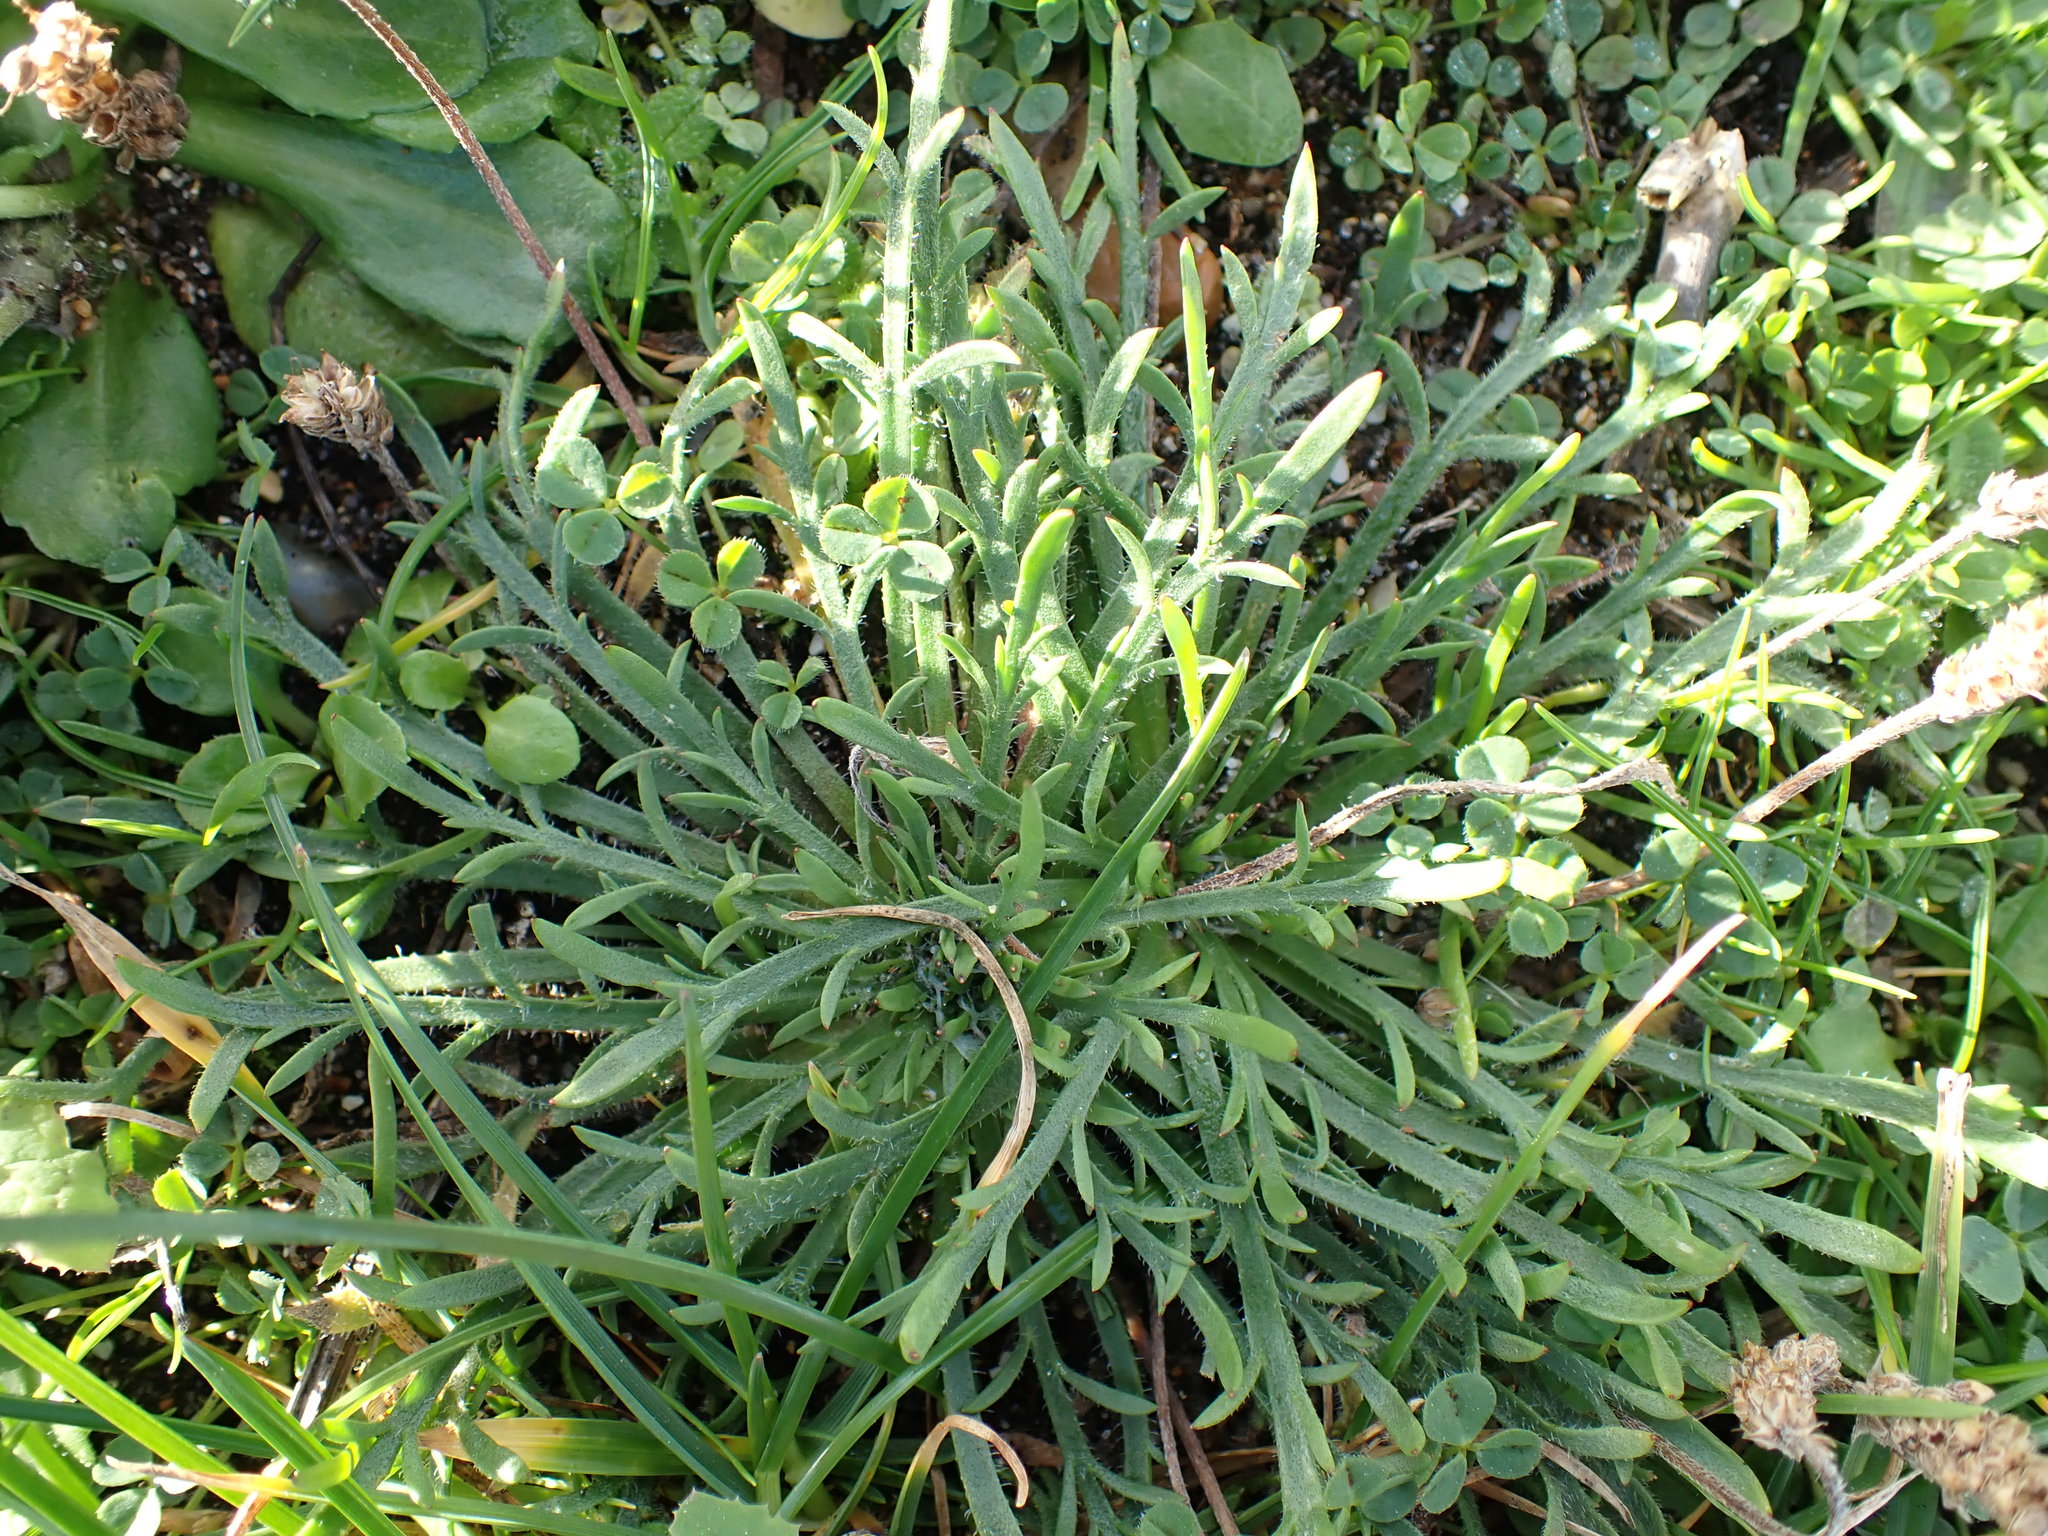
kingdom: Plantae
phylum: Tracheophyta
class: Magnoliopsida
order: Lamiales
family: Plantaginaceae
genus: Plantago
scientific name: Plantago coronopus
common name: Buck's-horn plantain
